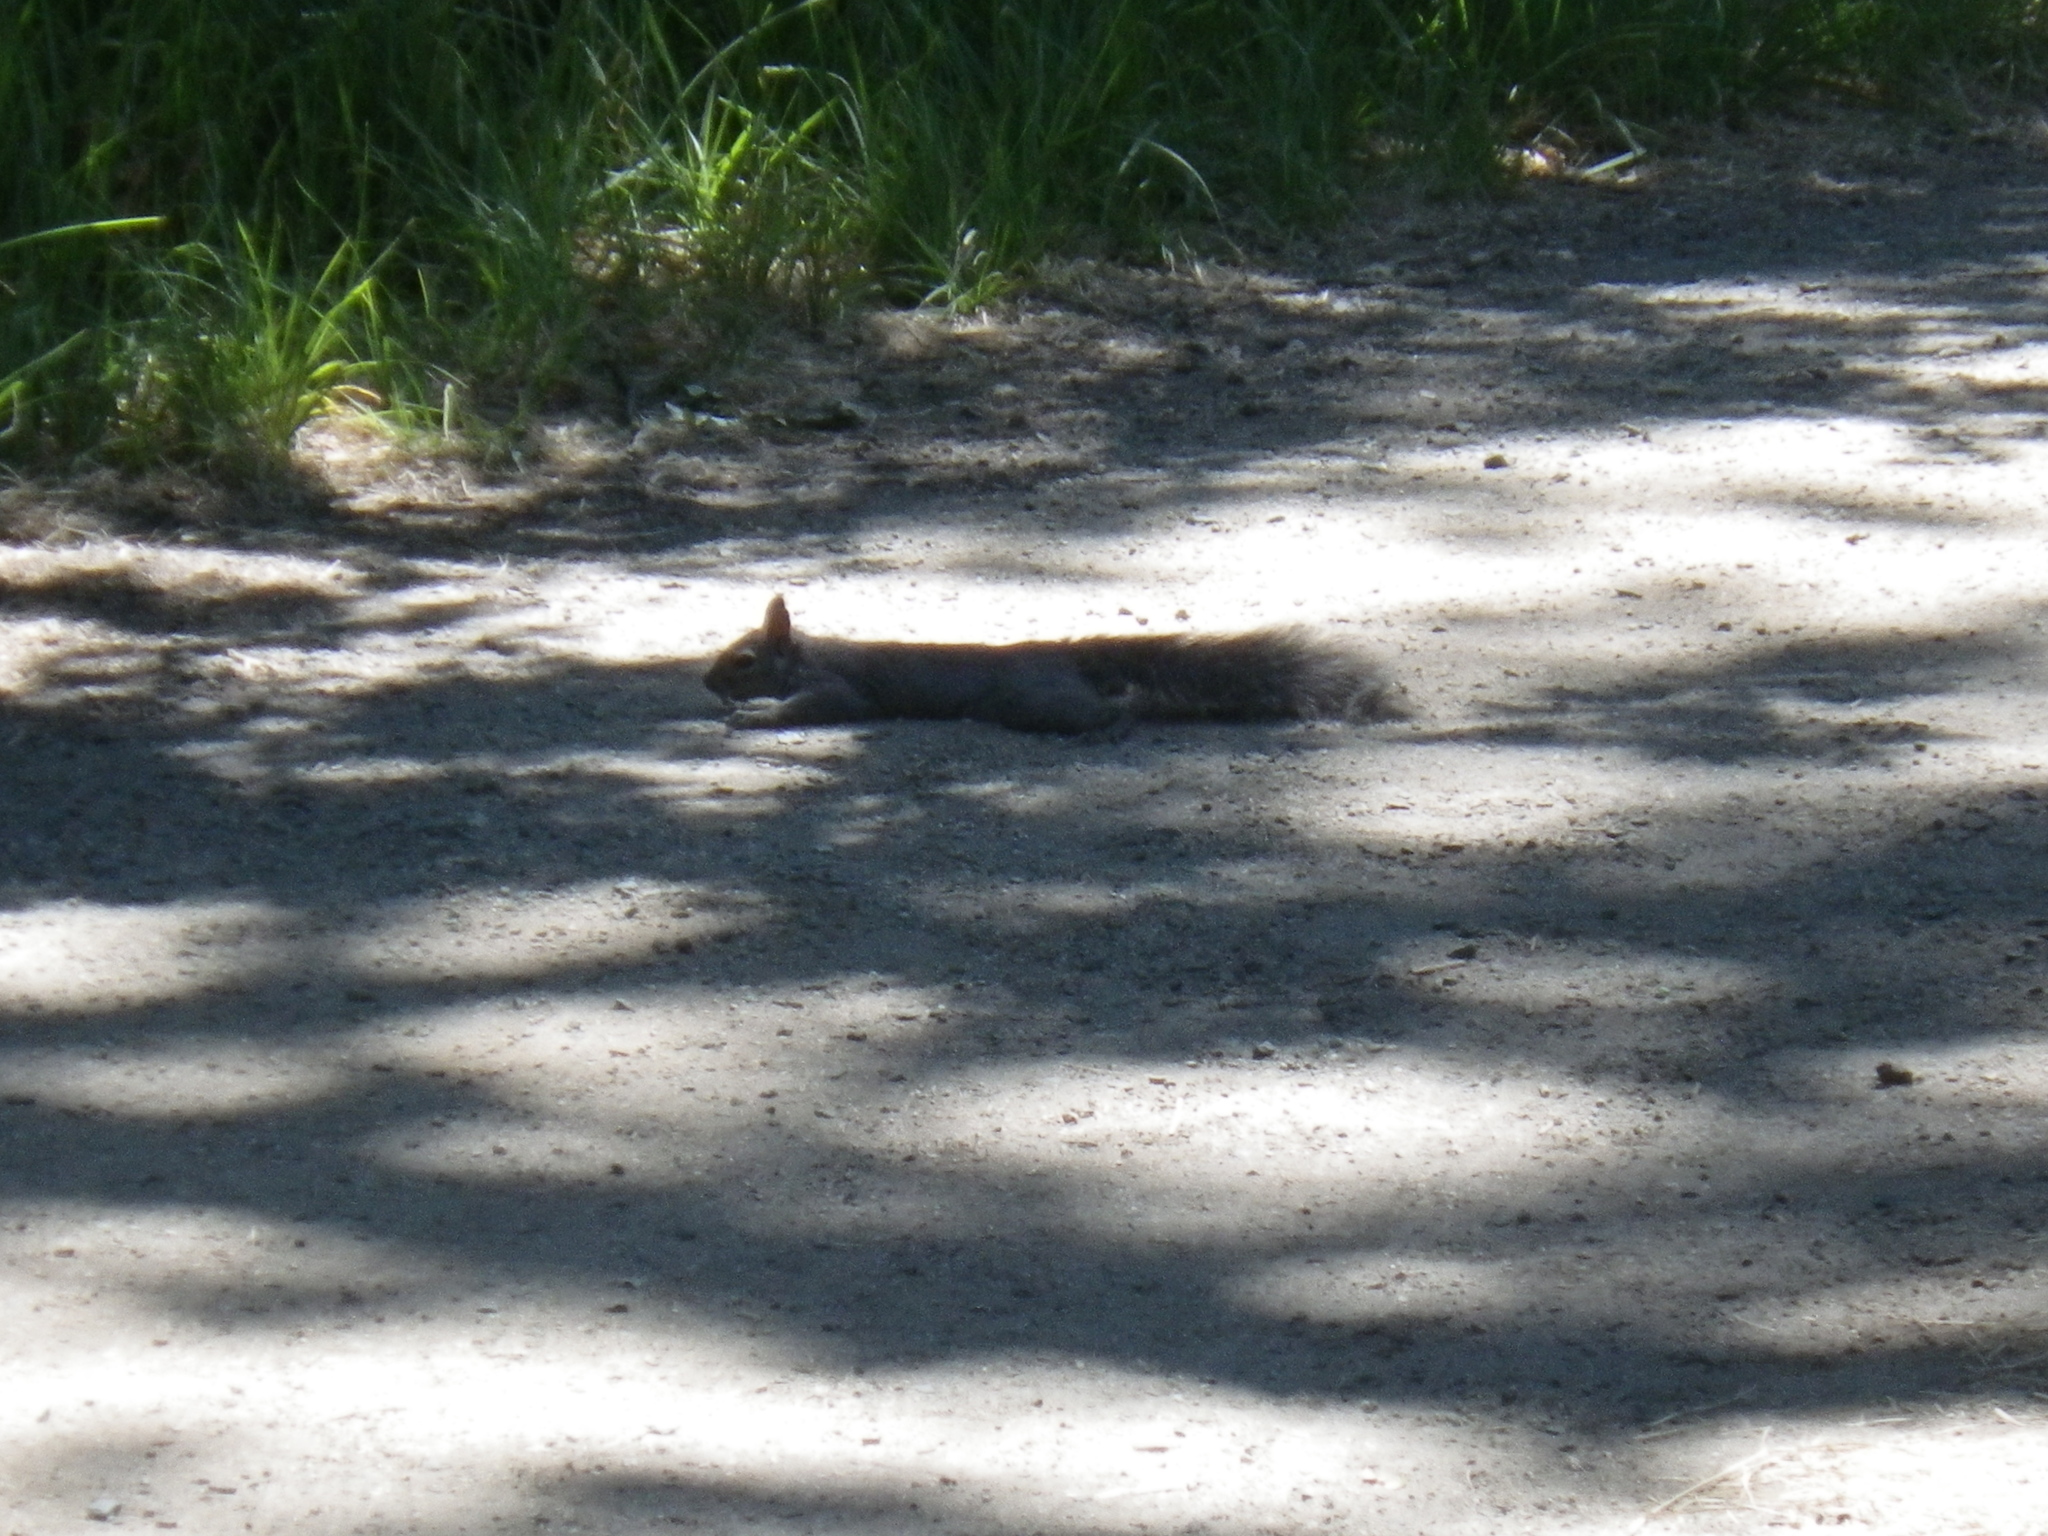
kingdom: Animalia
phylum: Chordata
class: Mammalia
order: Rodentia
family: Sciuridae
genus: Sciurus
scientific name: Sciurus griseus
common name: Western gray squirrel
